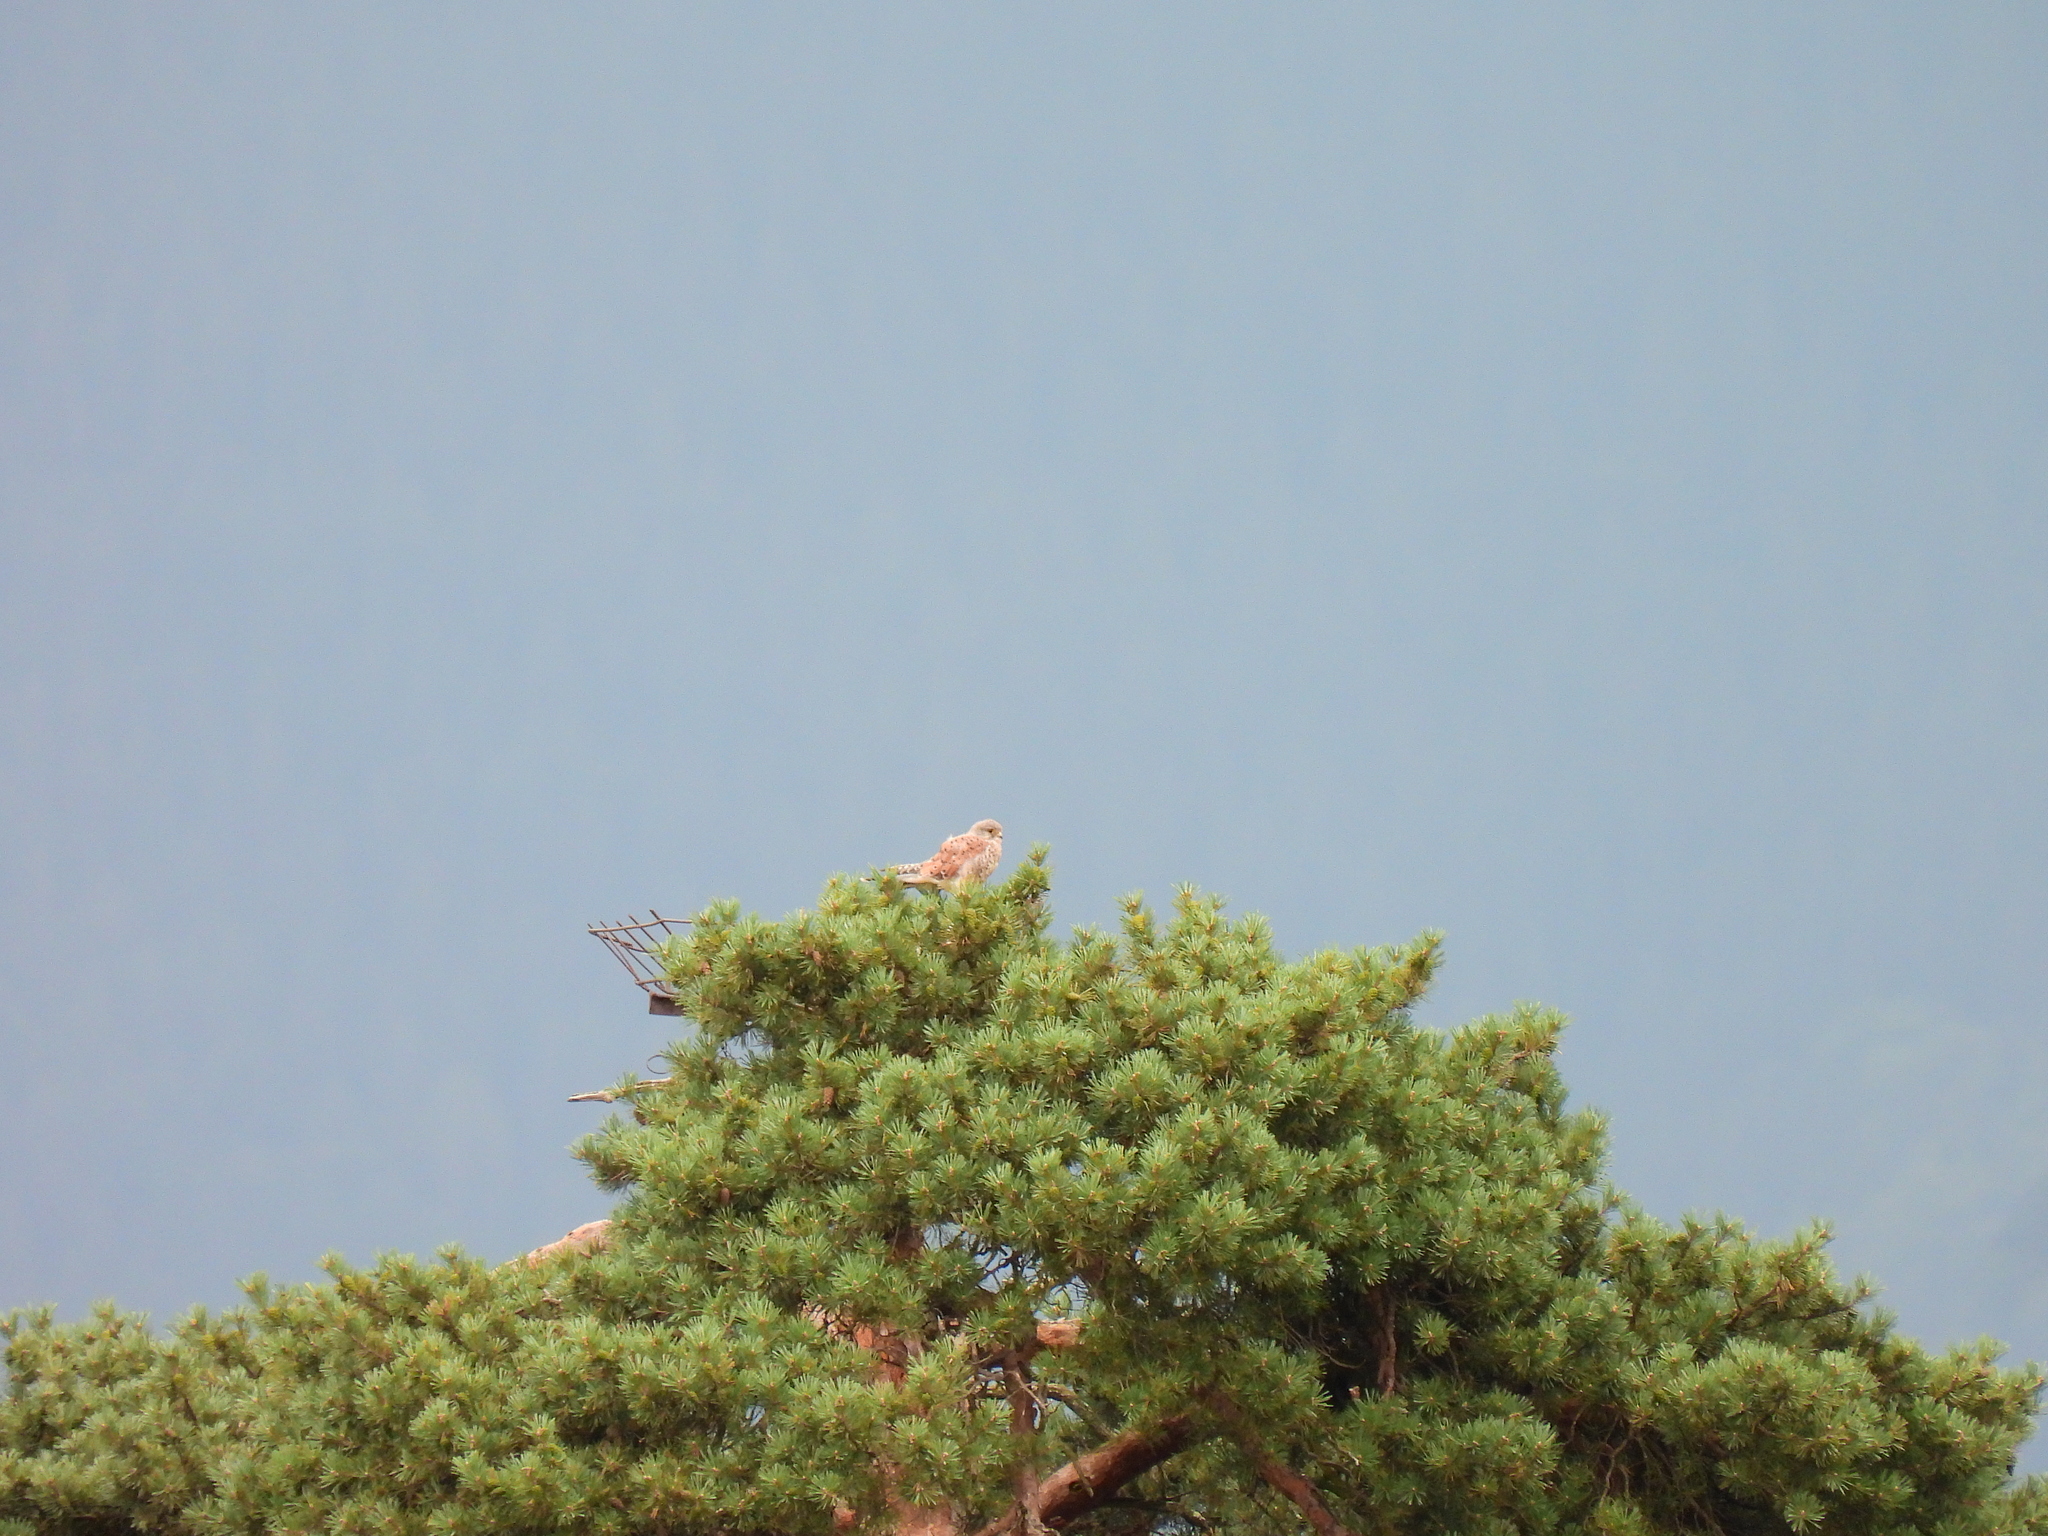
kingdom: Animalia
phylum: Chordata
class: Aves
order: Falconiformes
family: Falconidae
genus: Falco
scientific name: Falco tinnunculus
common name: Common kestrel
